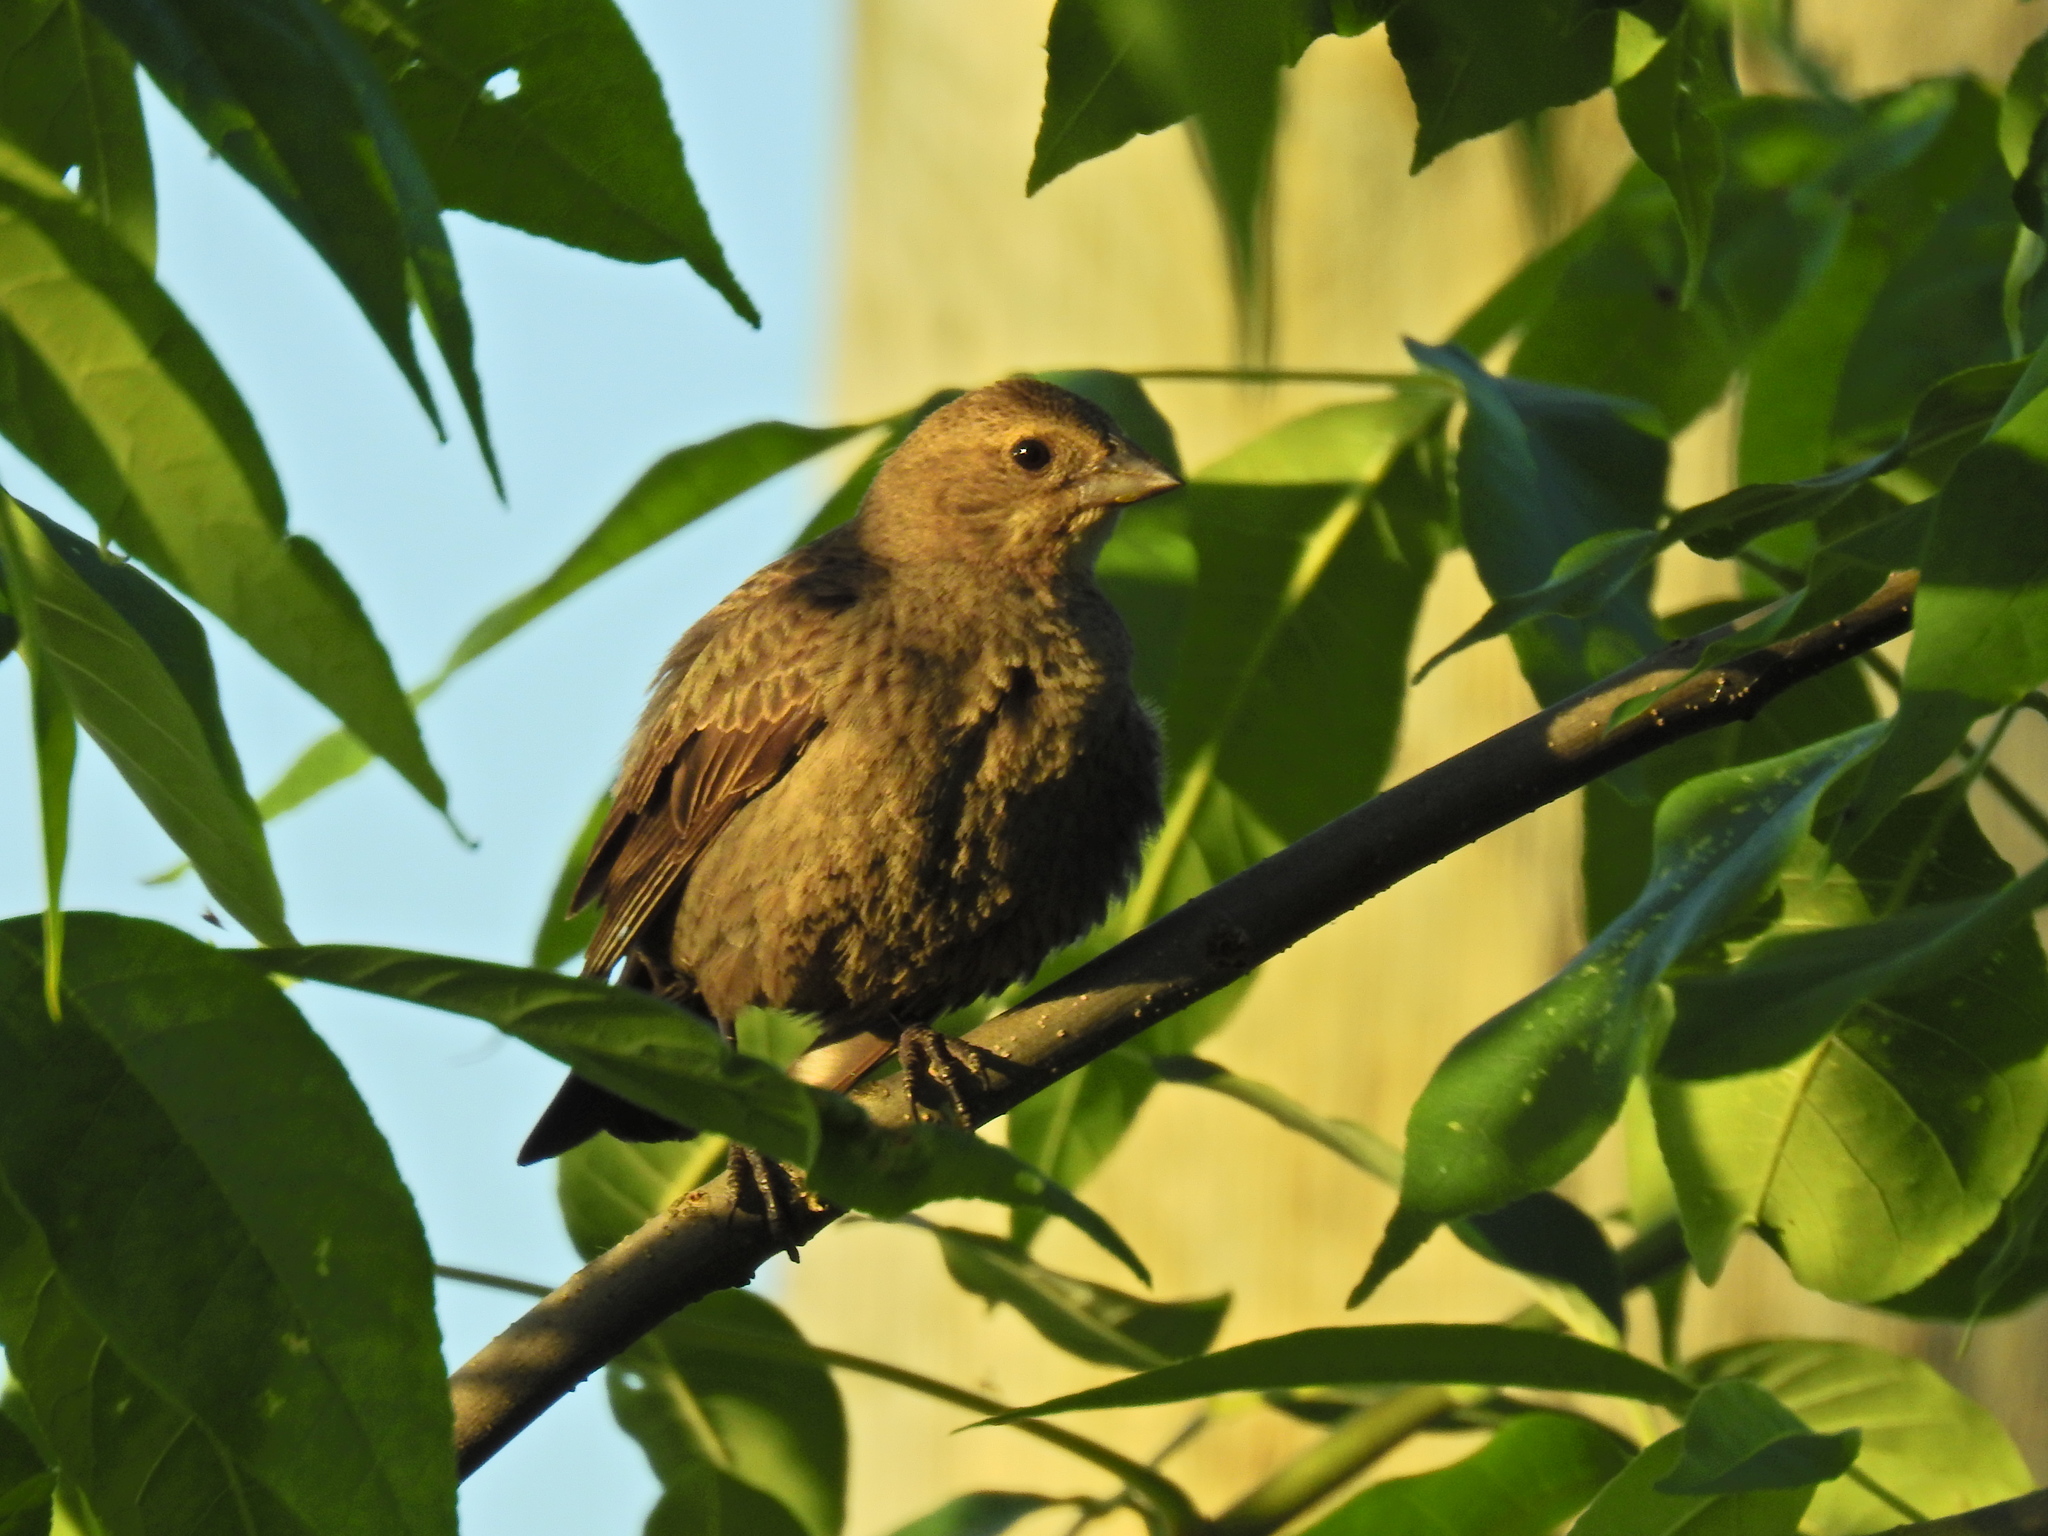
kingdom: Animalia
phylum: Chordata
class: Aves
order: Passeriformes
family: Icteridae
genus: Molothrus
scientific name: Molothrus ater
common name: Brown-headed cowbird
